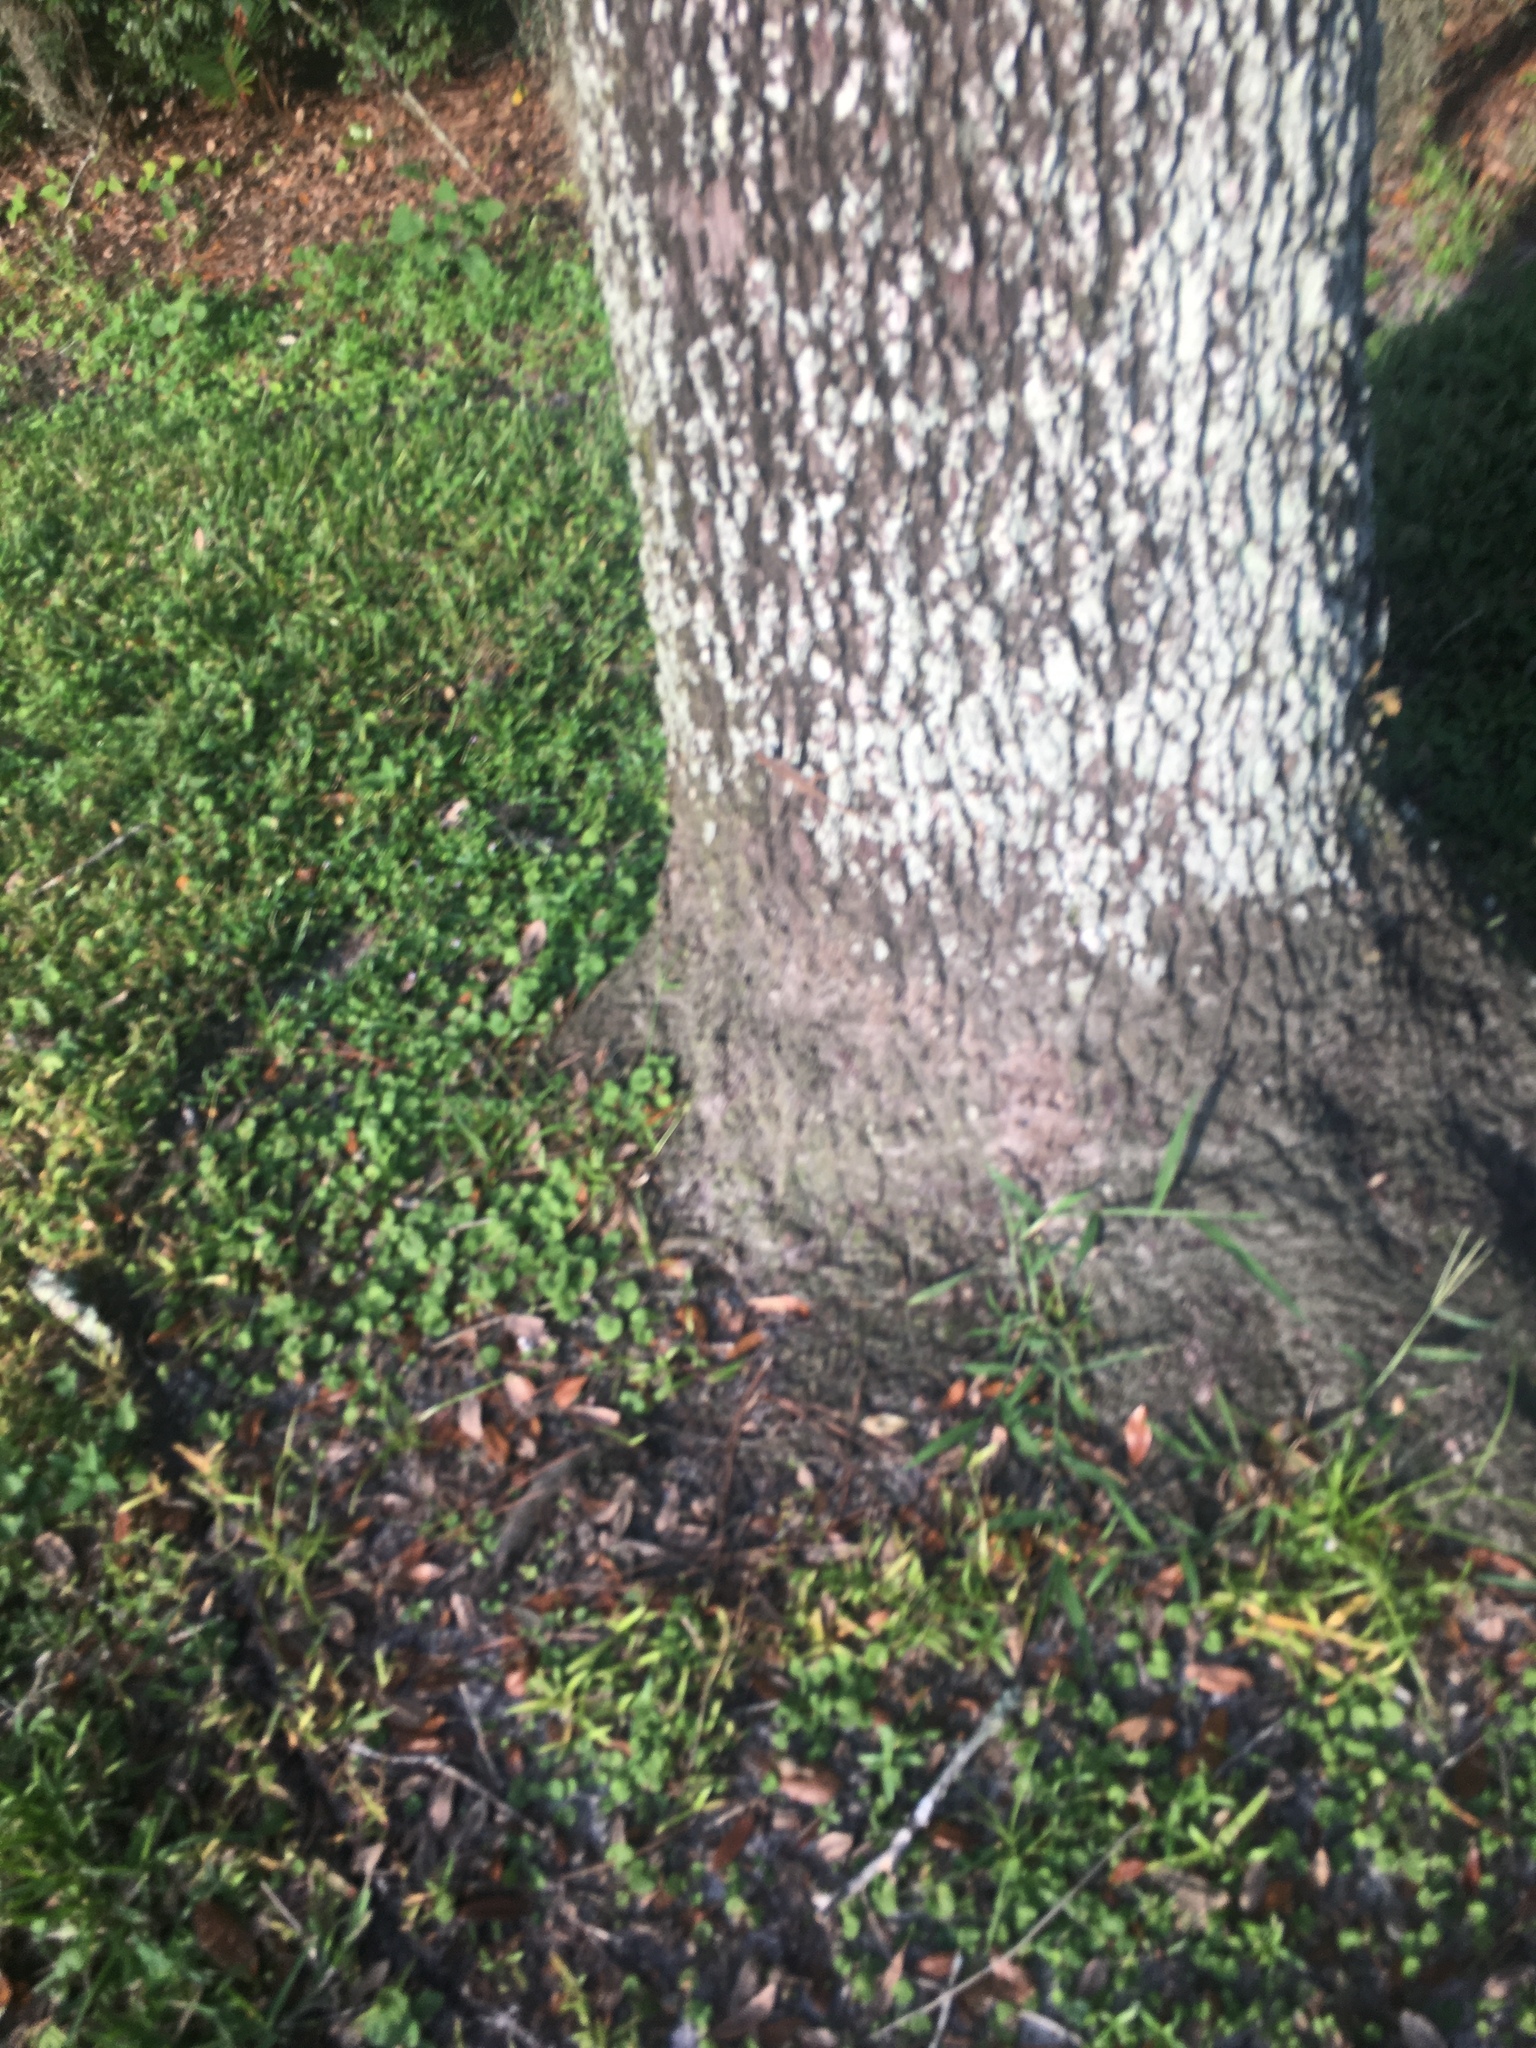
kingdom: Animalia
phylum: Chordata
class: Squamata
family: Dactyloidae
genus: Anolis
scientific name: Anolis sagrei
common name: Brown anole
